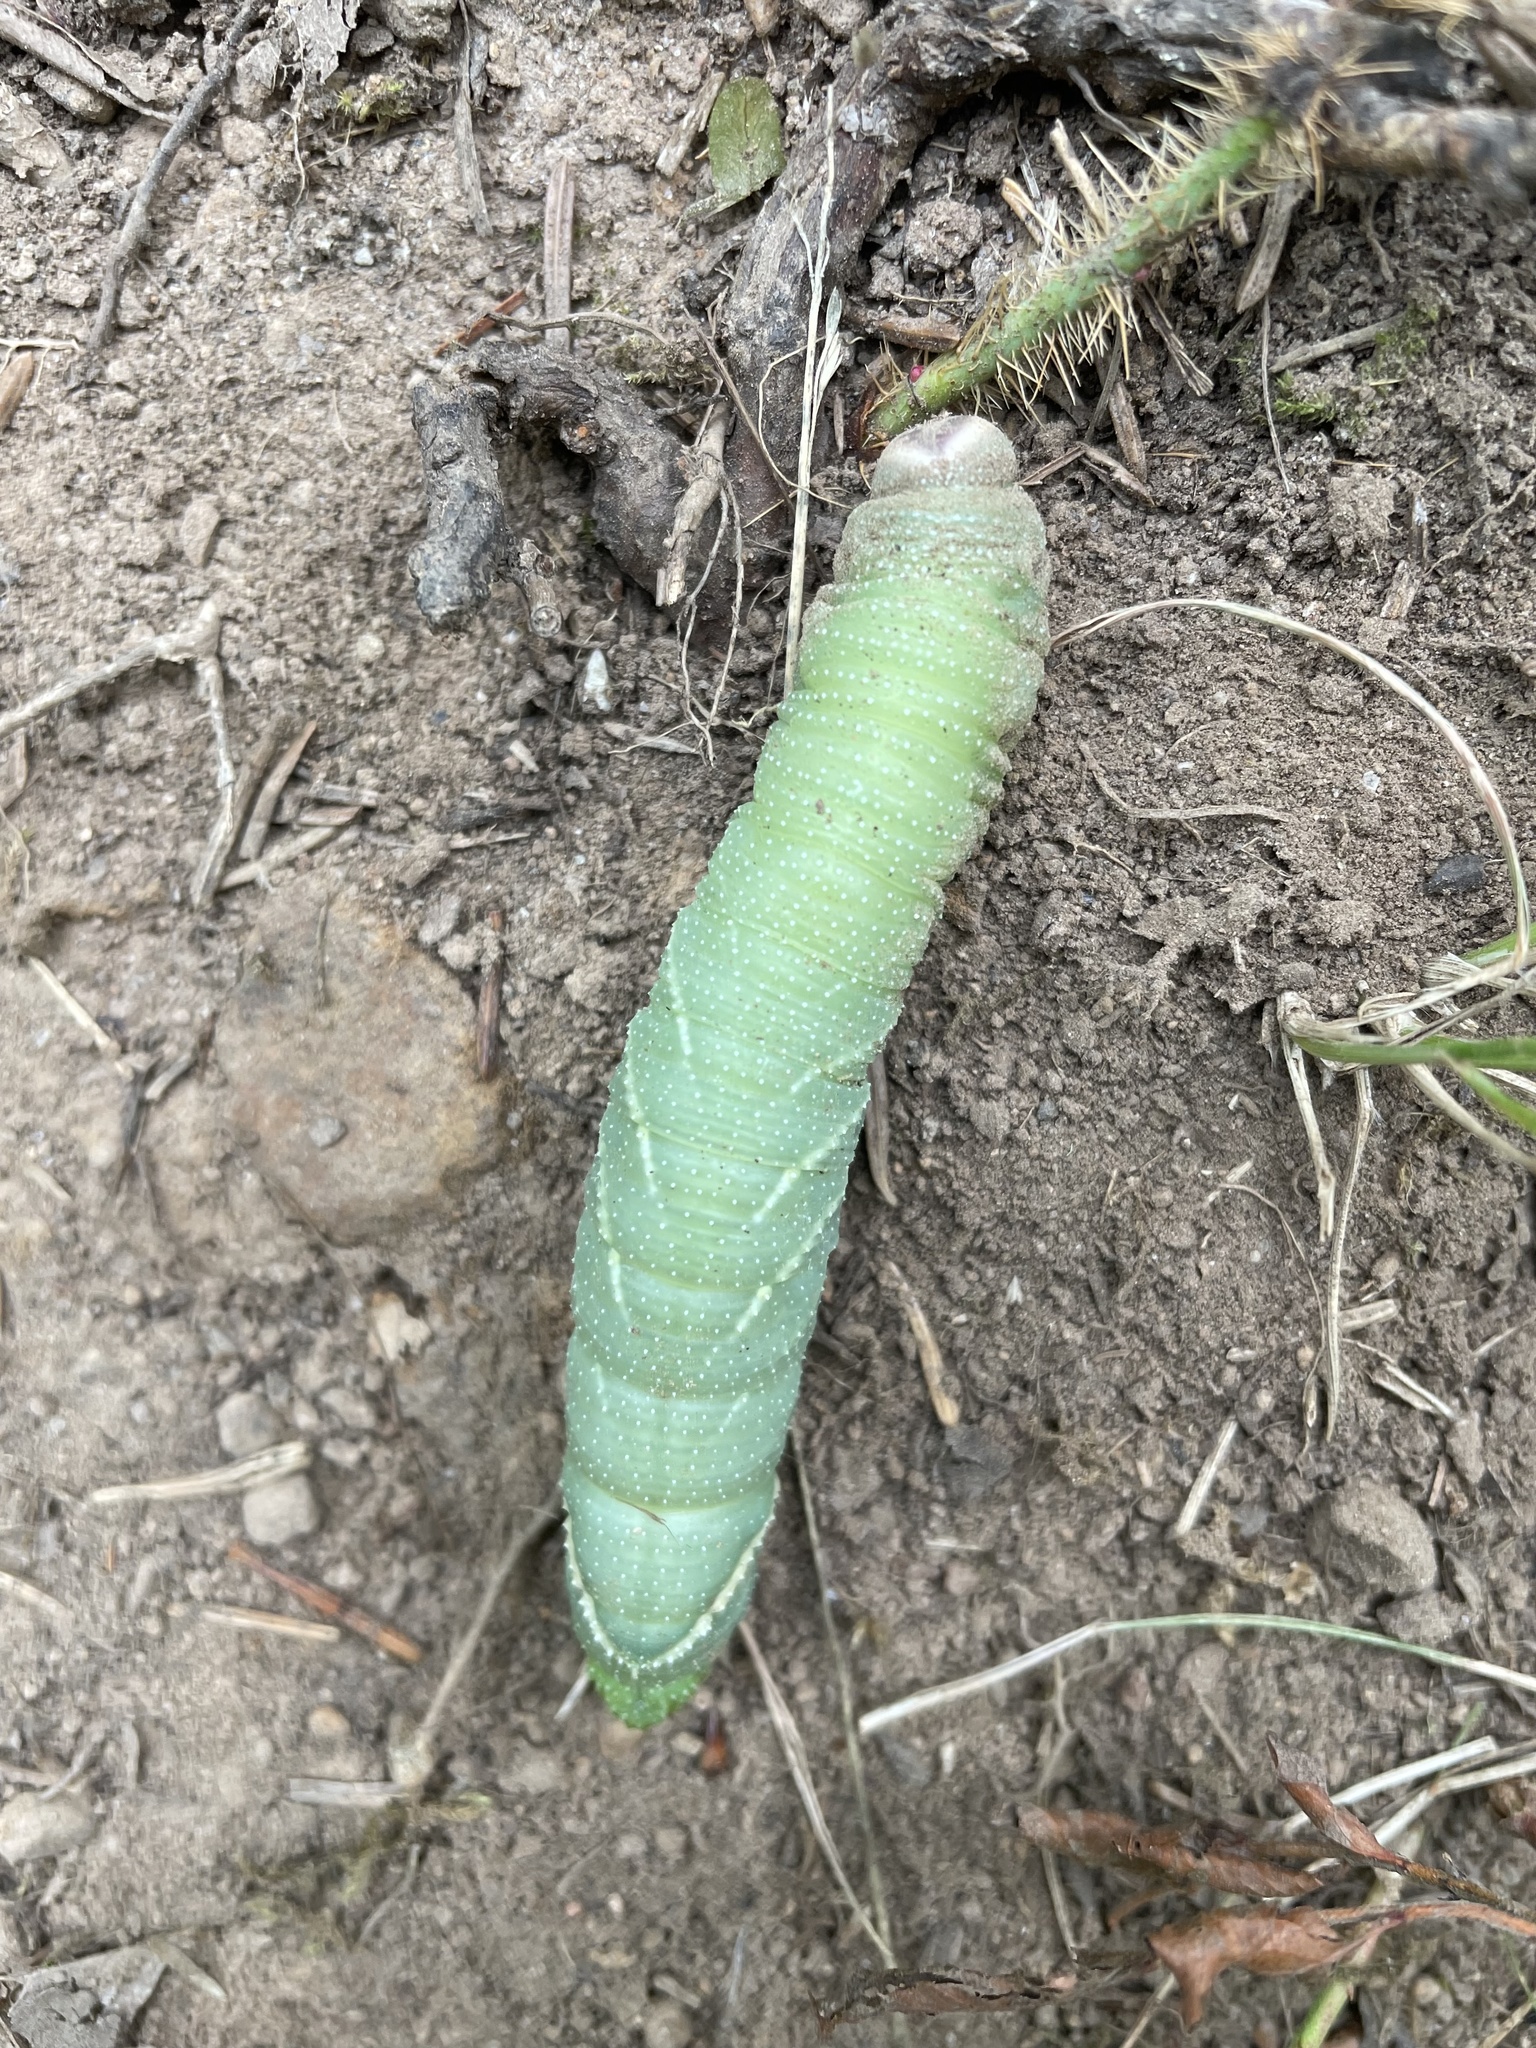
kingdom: Animalia
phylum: Arthropoda
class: Insecta
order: Lepidoptera
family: Sphingidae
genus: Pachysphinx
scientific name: Pachysphinx modesta
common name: Big poplar sphinx
